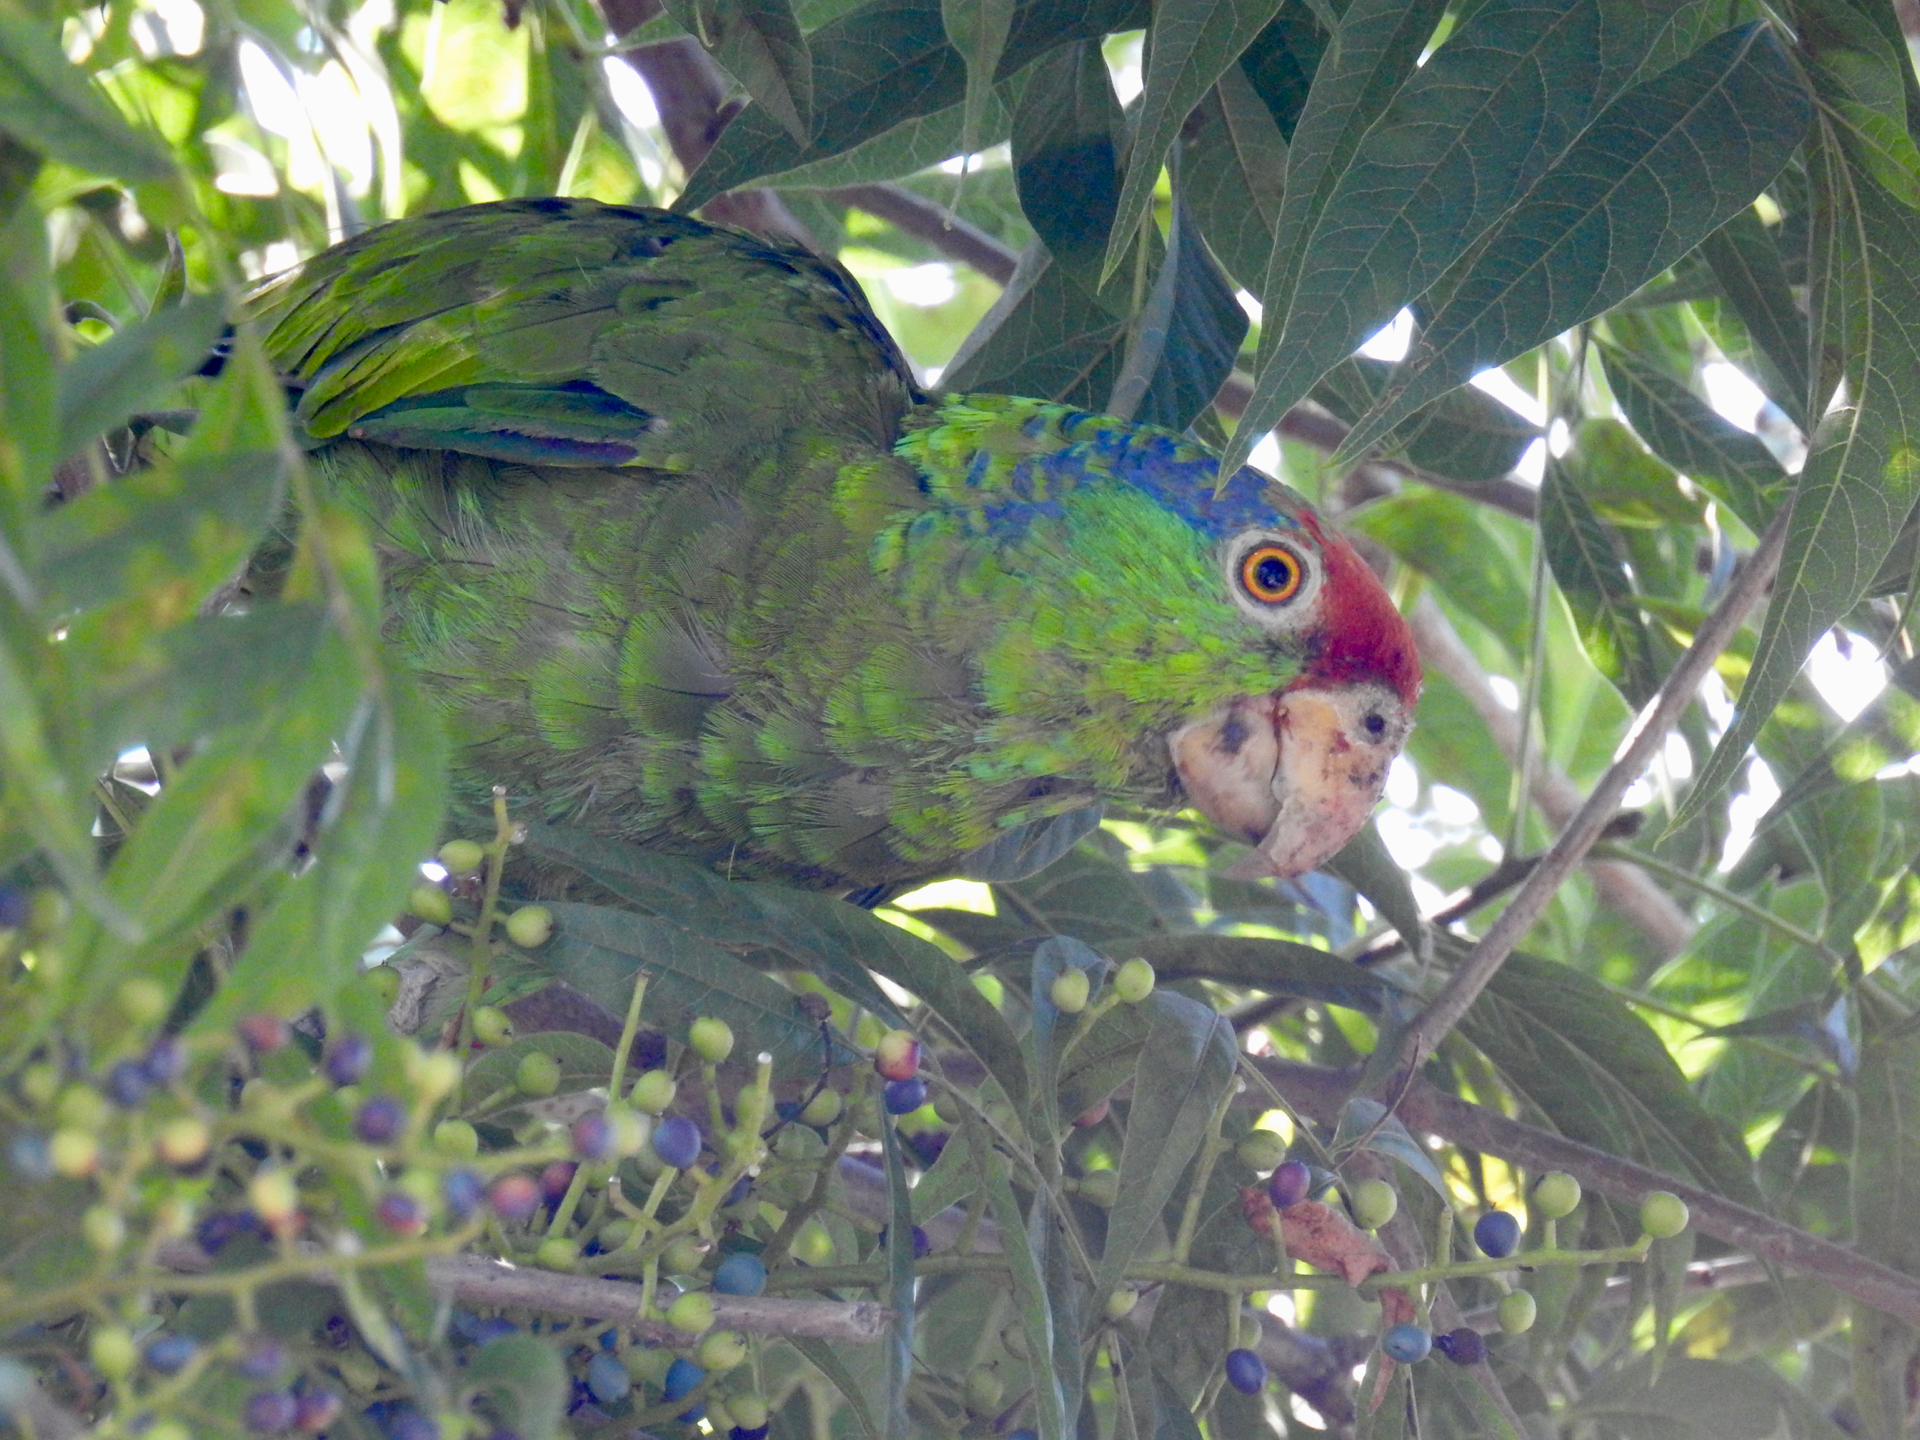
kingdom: Animalia
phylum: Chordata
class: Aves
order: Psittaciformes
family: Psittacidae
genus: Amazona
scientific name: Amazona viridigenalis
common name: Red-crowned amazon
